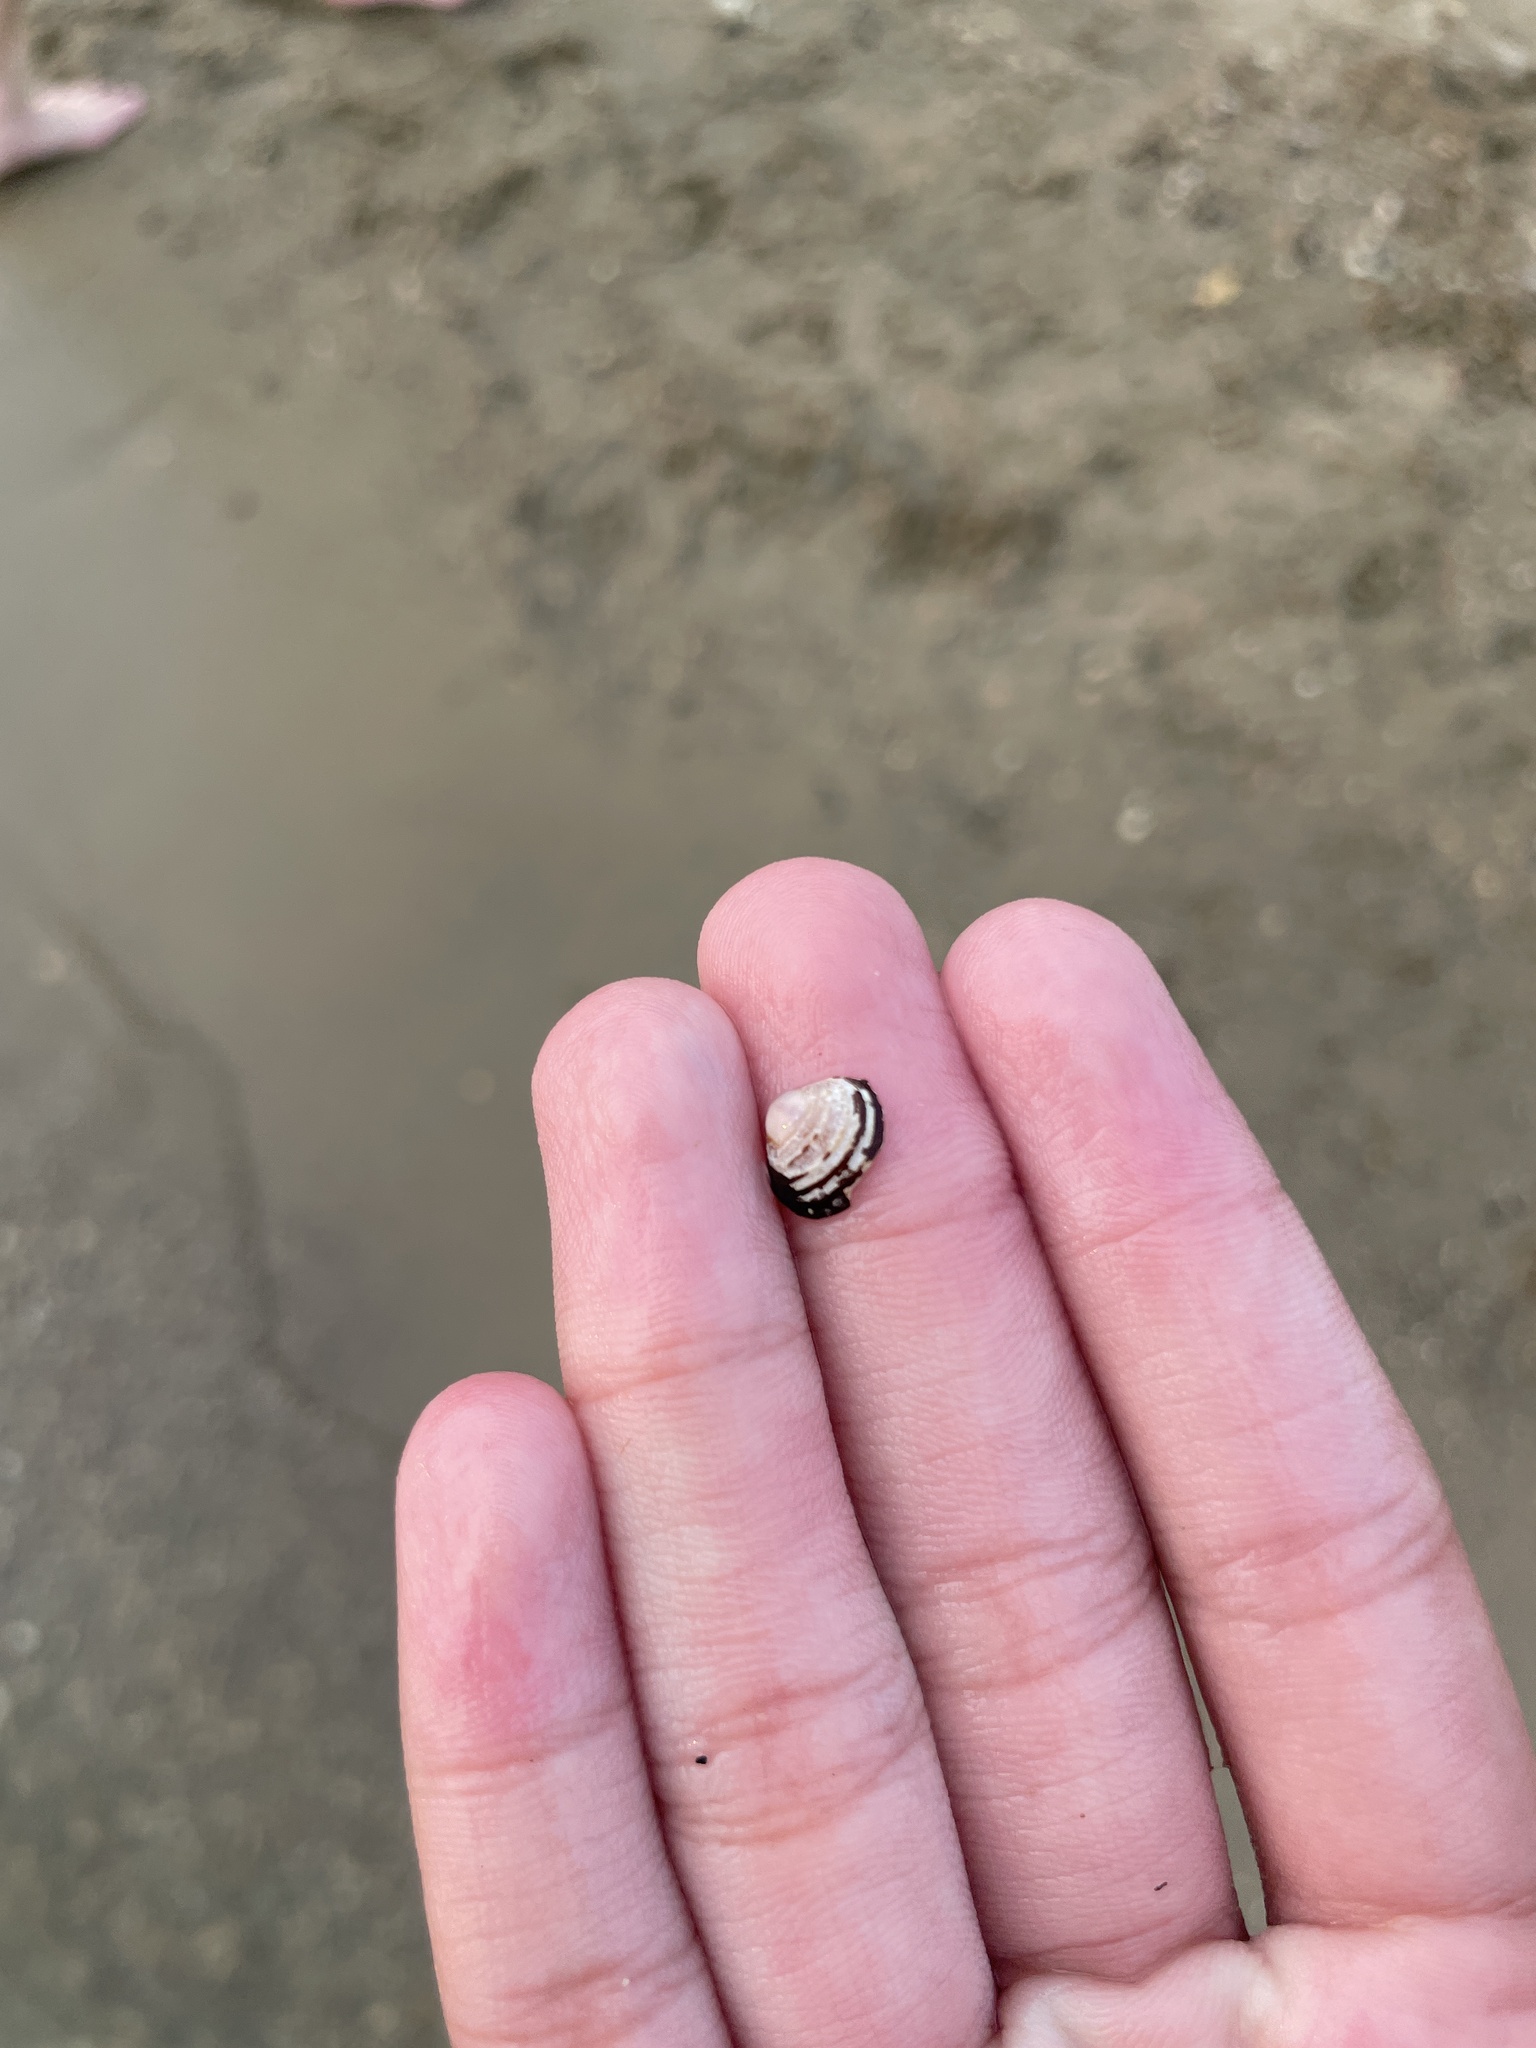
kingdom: Animalia
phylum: Mollusca
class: Bivalvia
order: Venerida
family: Cyrenidae
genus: Corbicula
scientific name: Corbicula fluminea
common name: Asian clam
